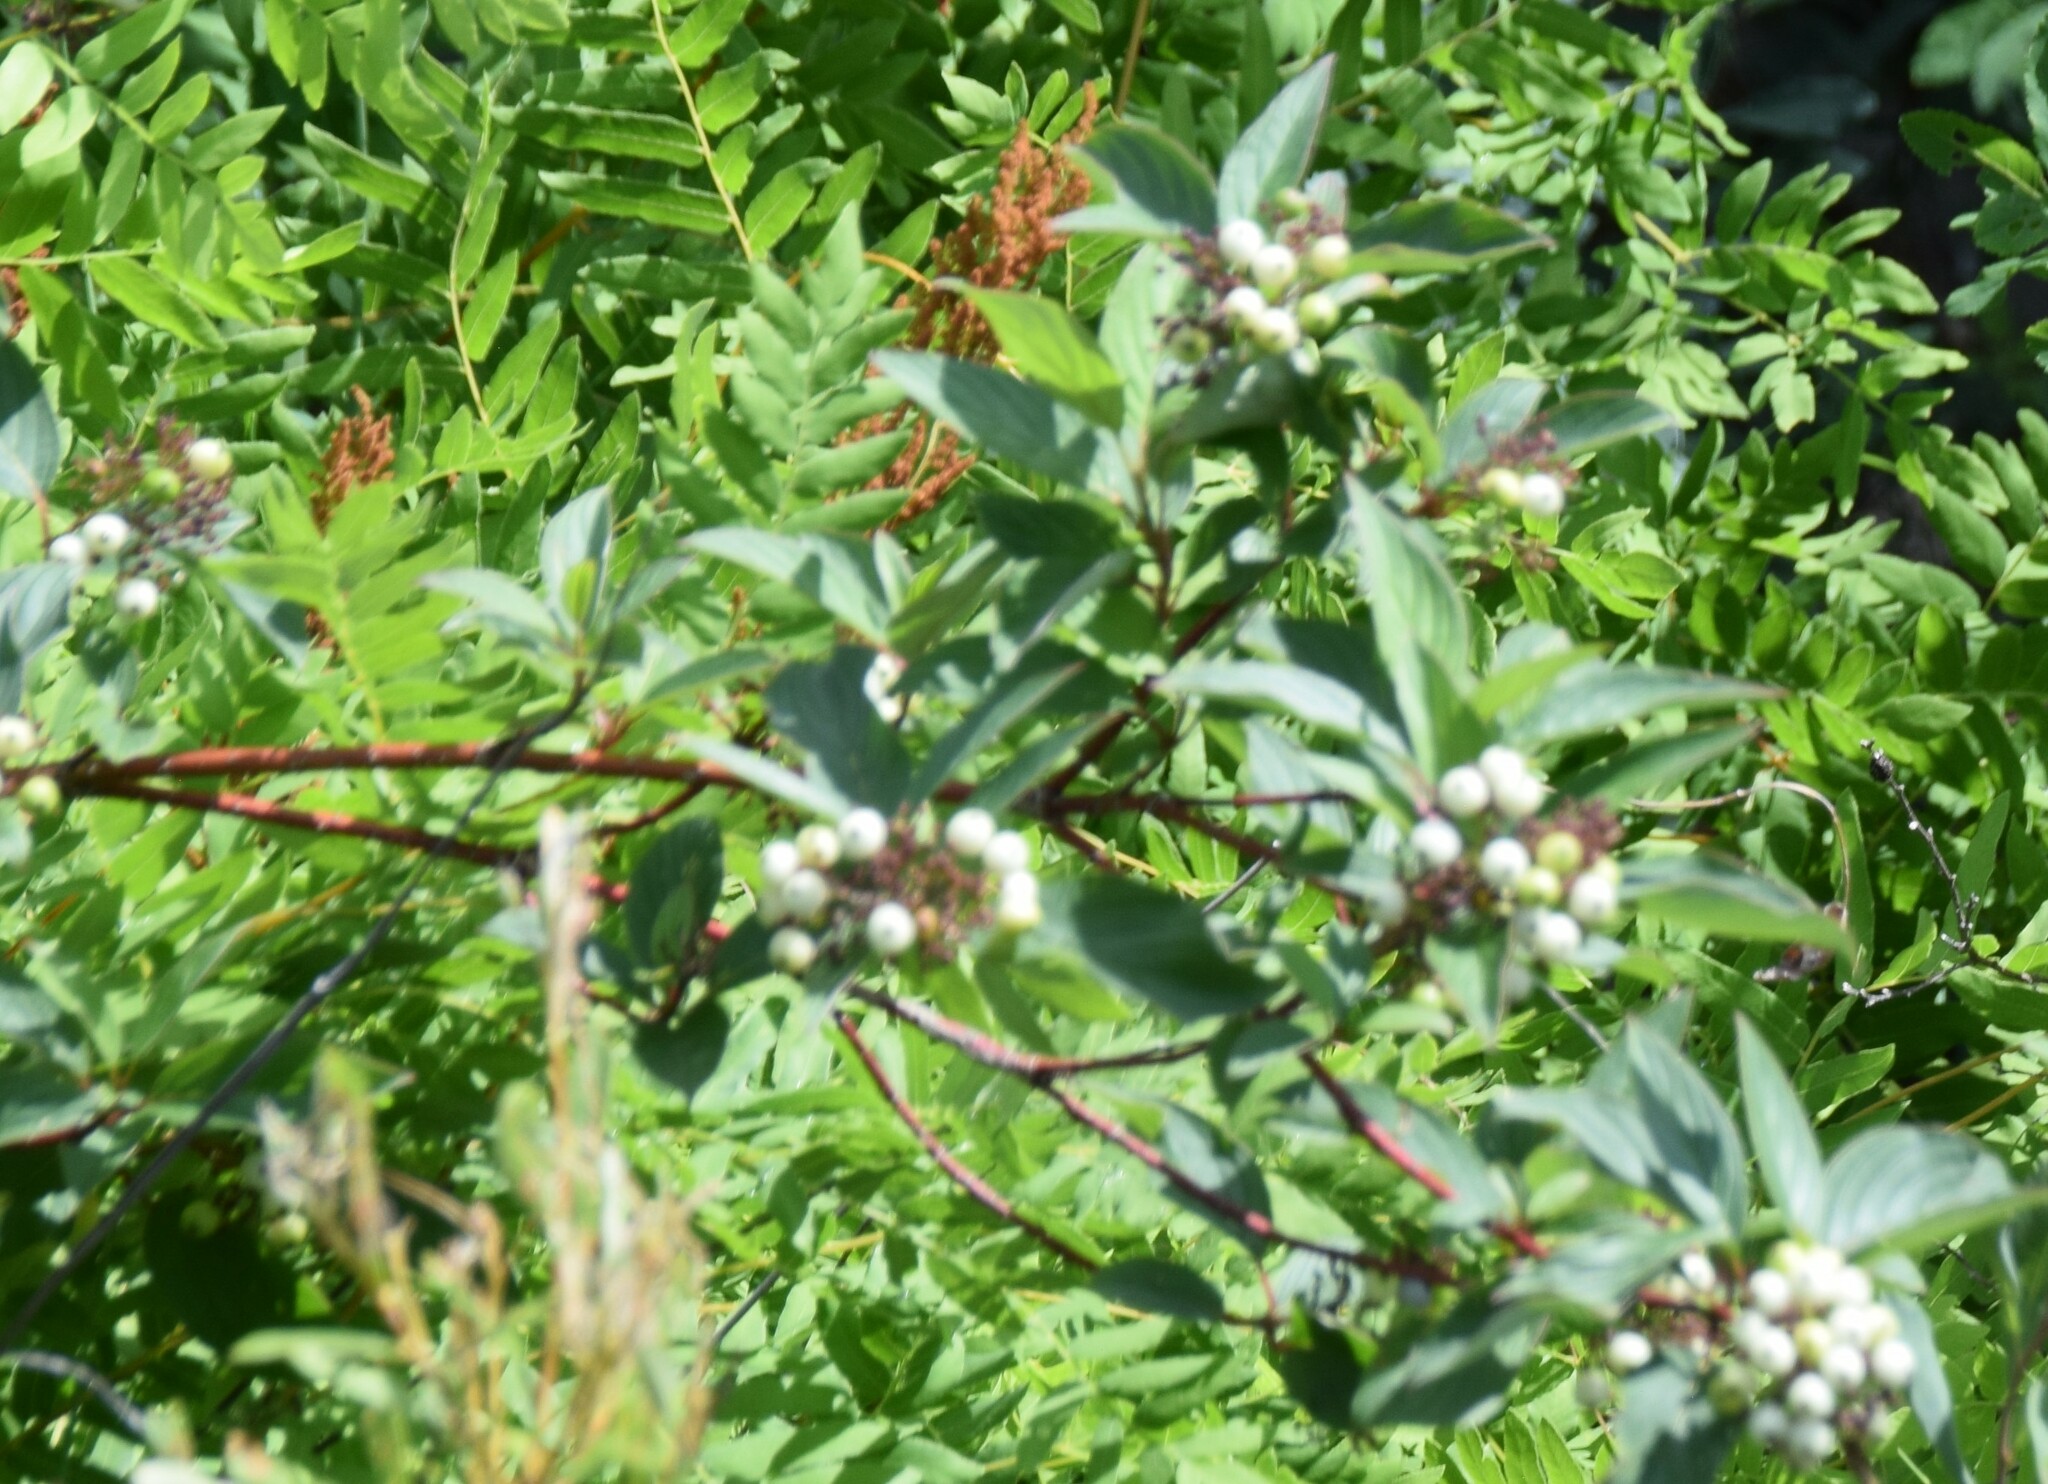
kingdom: Plantae
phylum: Tracheophyta
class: Magnoliopsida
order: Cornales
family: Cornaceae
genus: Cornus
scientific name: Cornus sericea
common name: Red-osier dogwood
